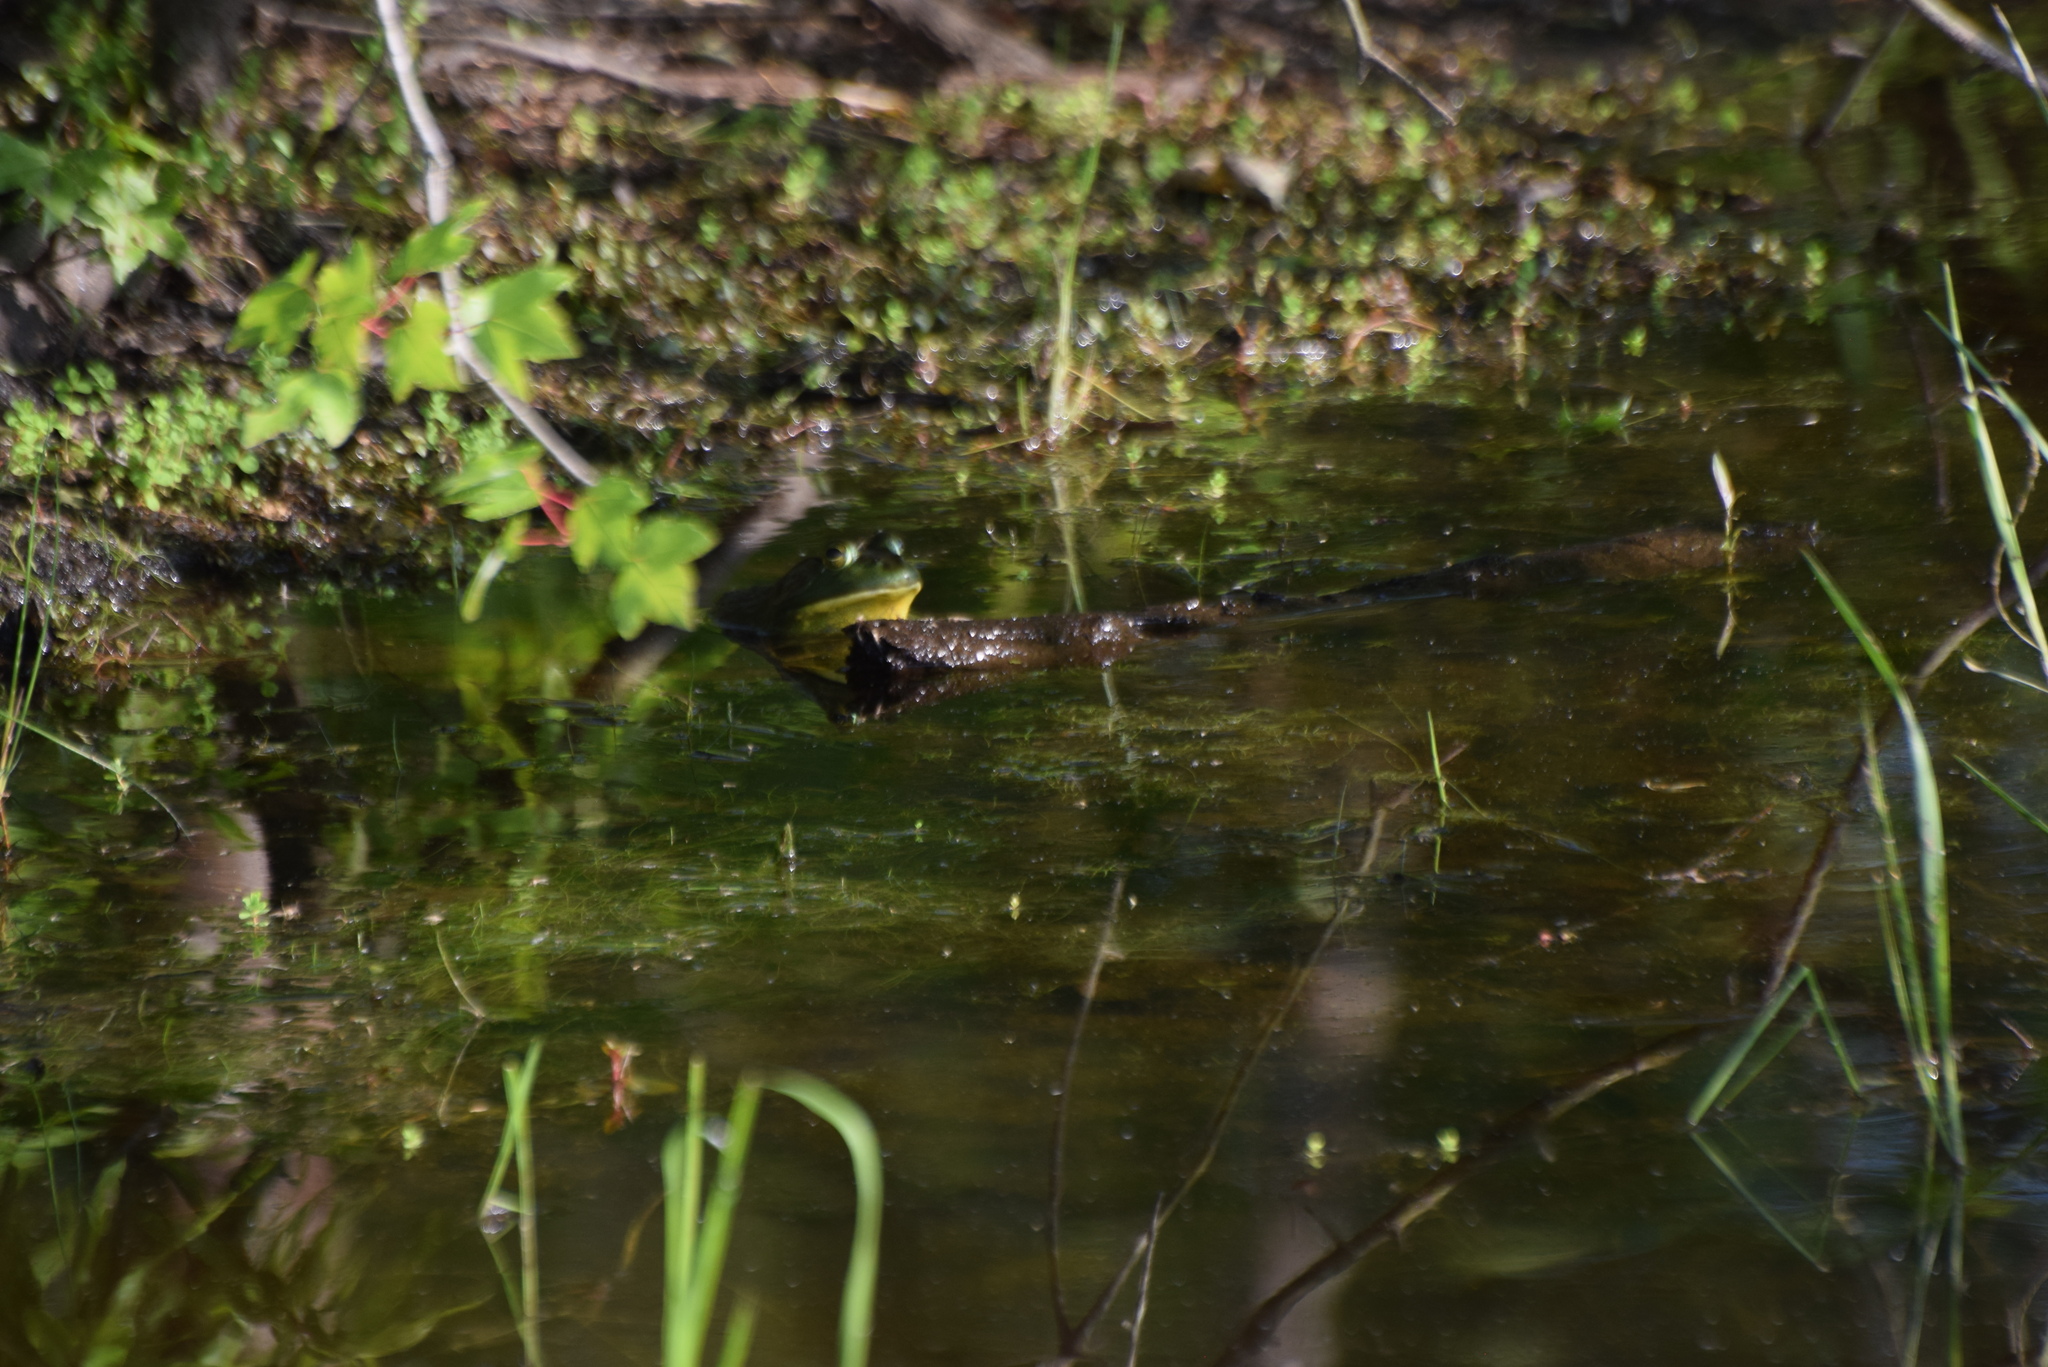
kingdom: Animalia
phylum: Chordata
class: Amphibia
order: Anura
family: Ranidae
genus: Lithobates
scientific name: Lithobates catesbeianus
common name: American bullfrog
